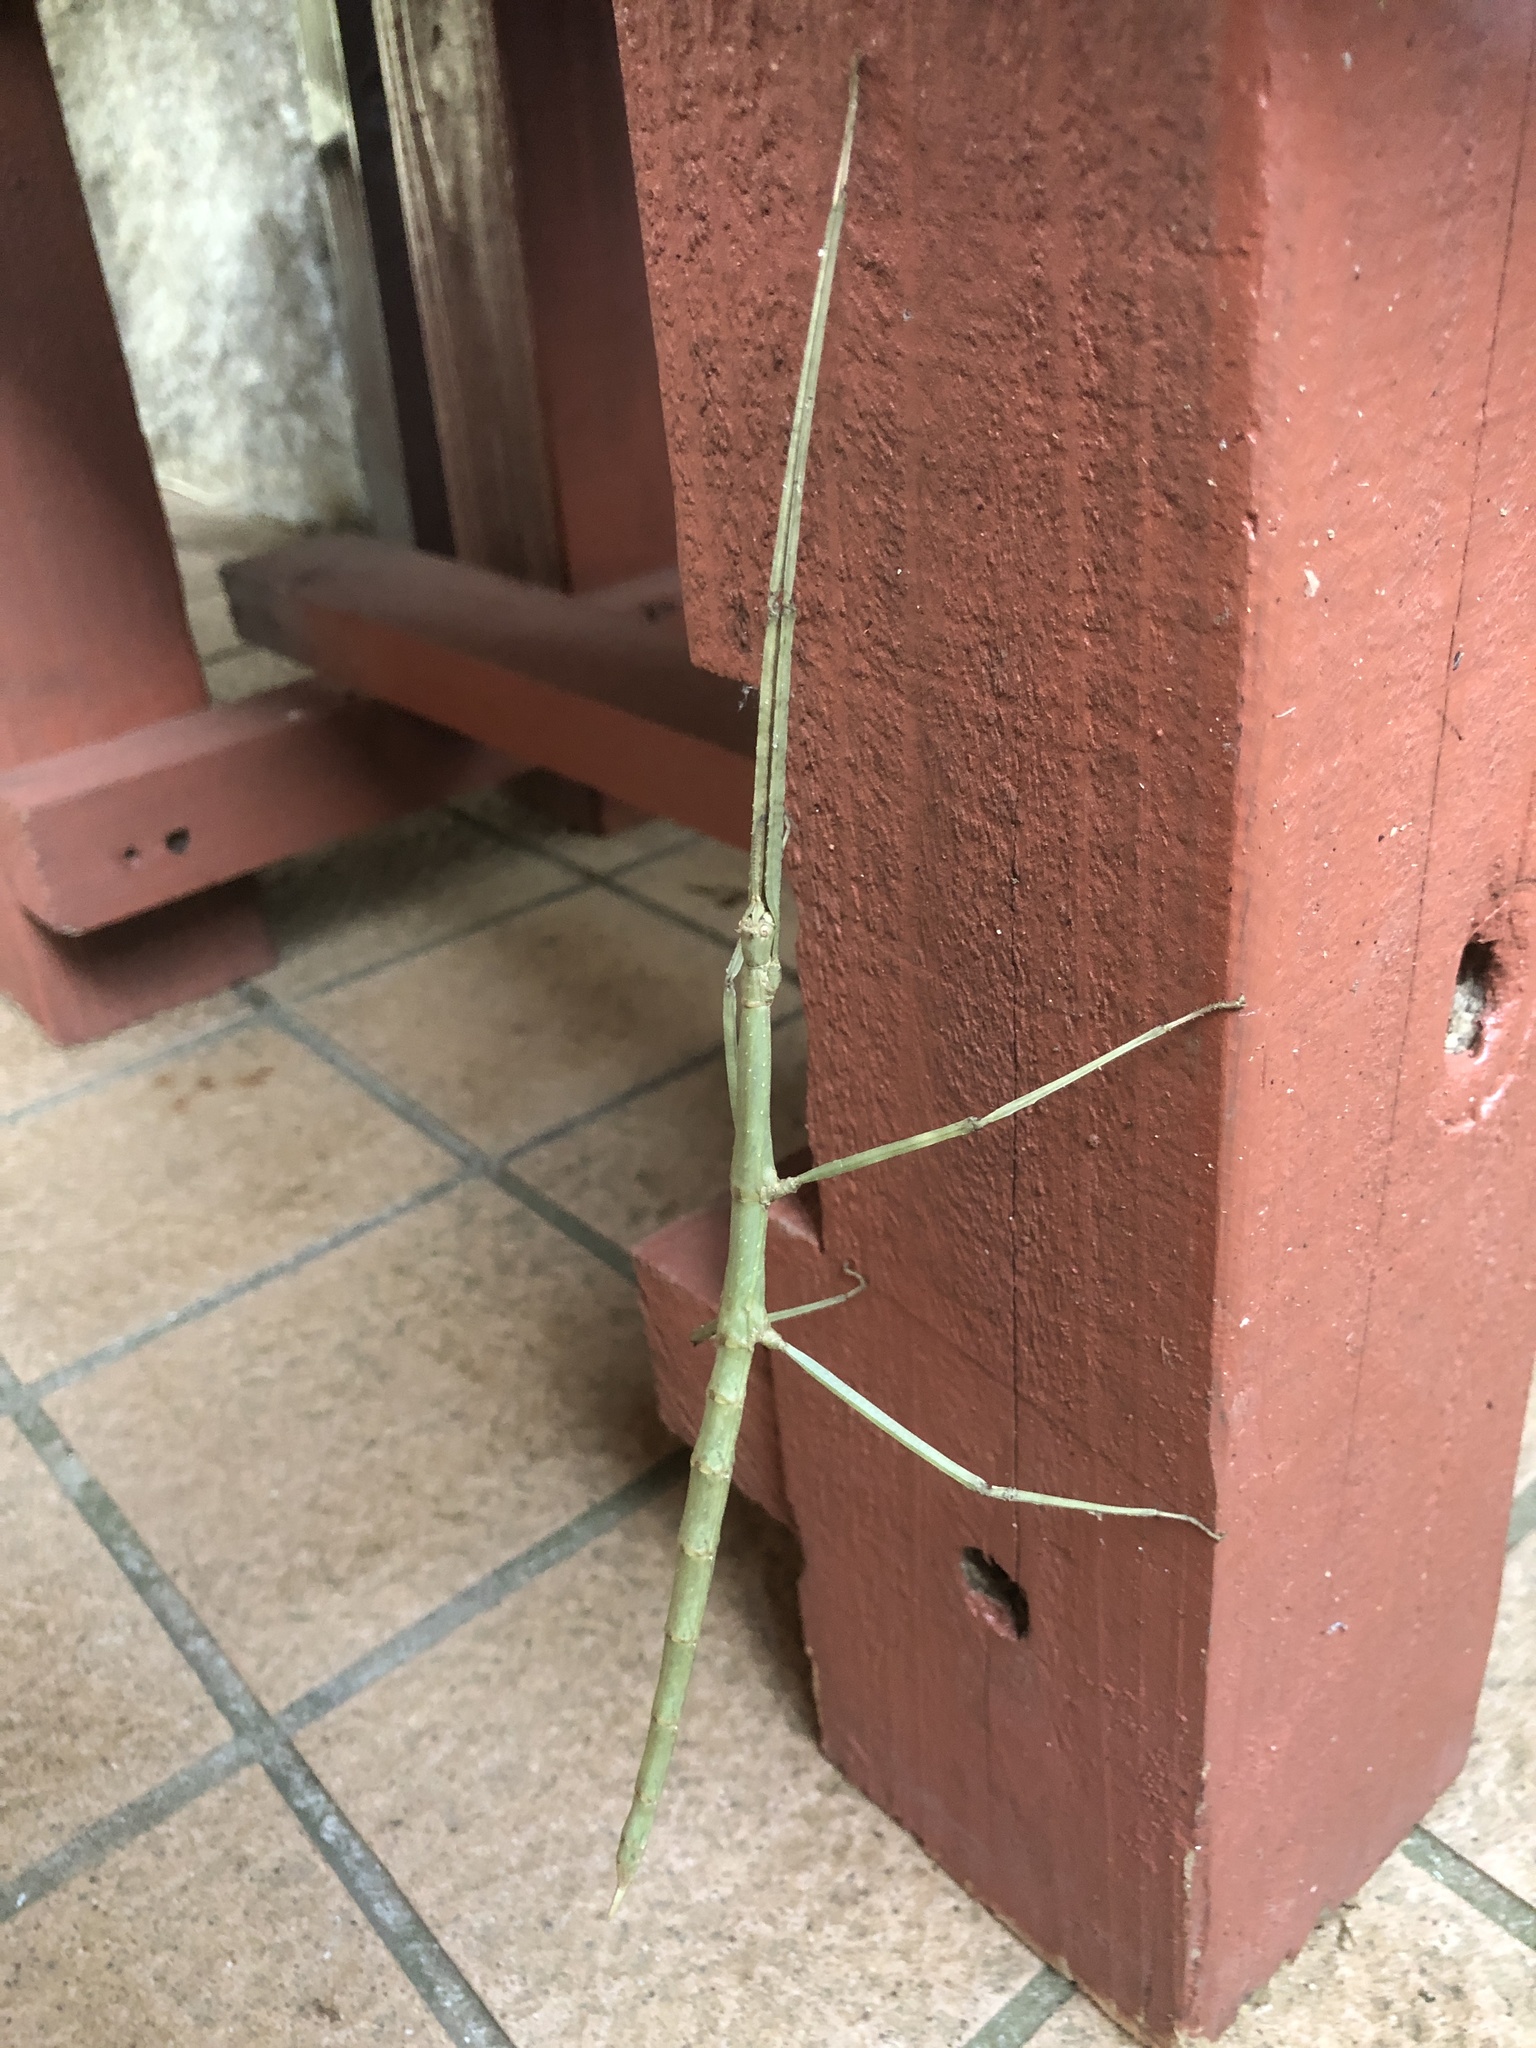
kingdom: Animalia
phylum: Arthropoda
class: Insecta
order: Phasmida
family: Phasmatidae
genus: Entoria
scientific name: Entoria miyakoensis
